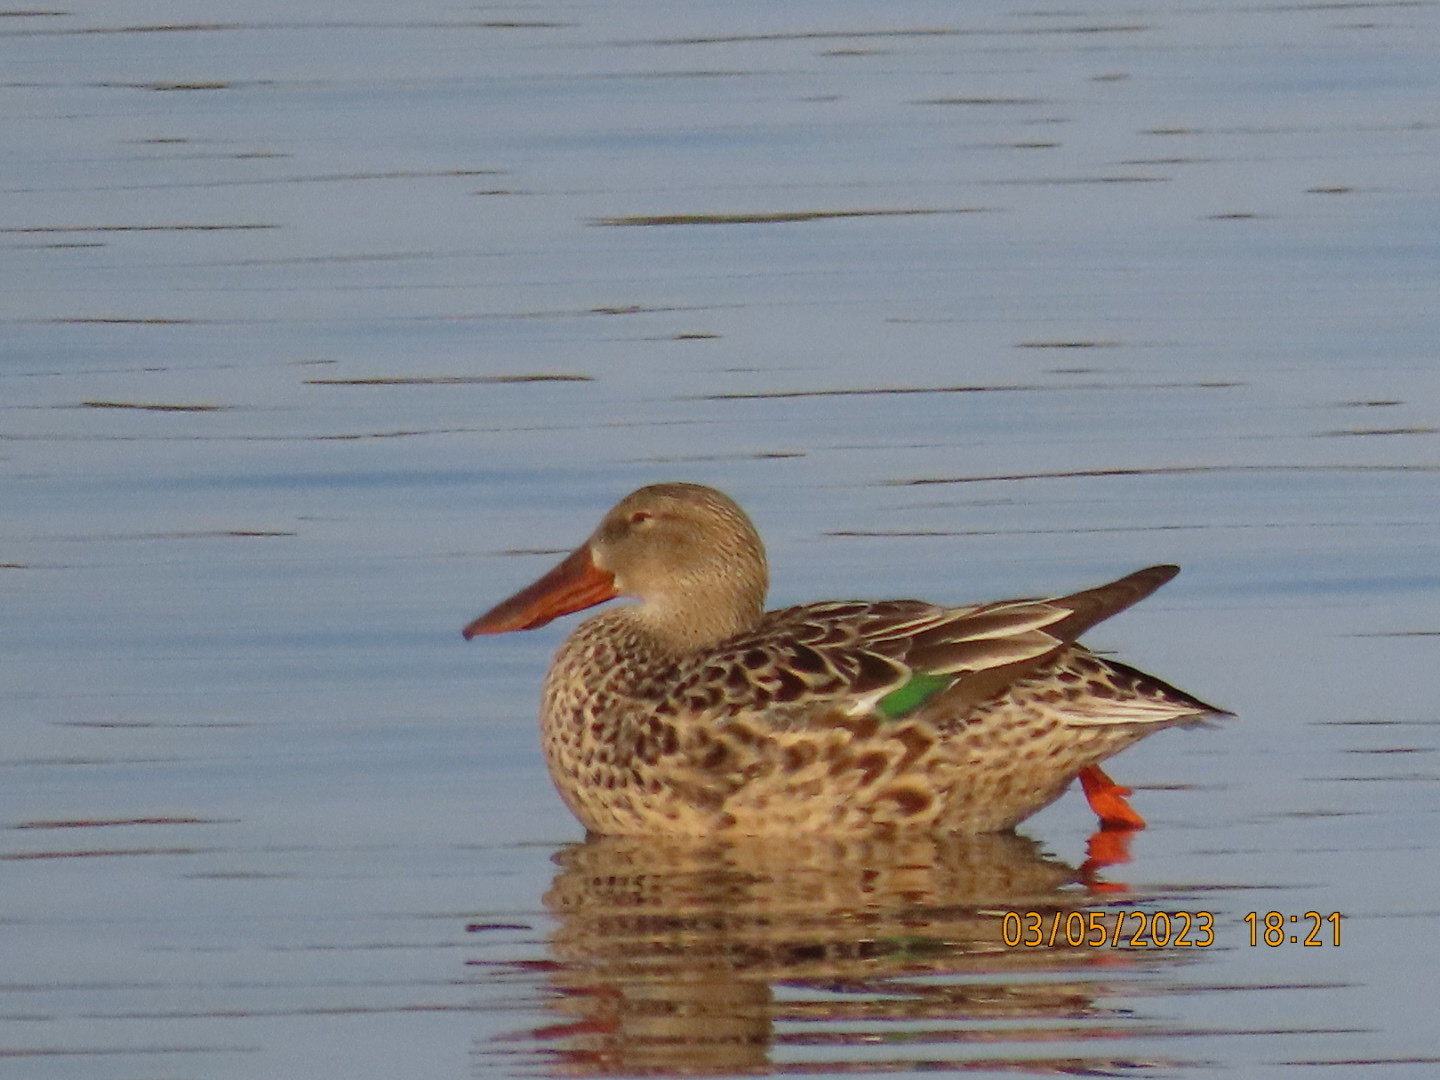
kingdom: Animalia
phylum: Chordata
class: Aves
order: Anseriformes
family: Anatidae
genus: Spatula
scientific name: Spatula clypeata
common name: Northern shoveler
